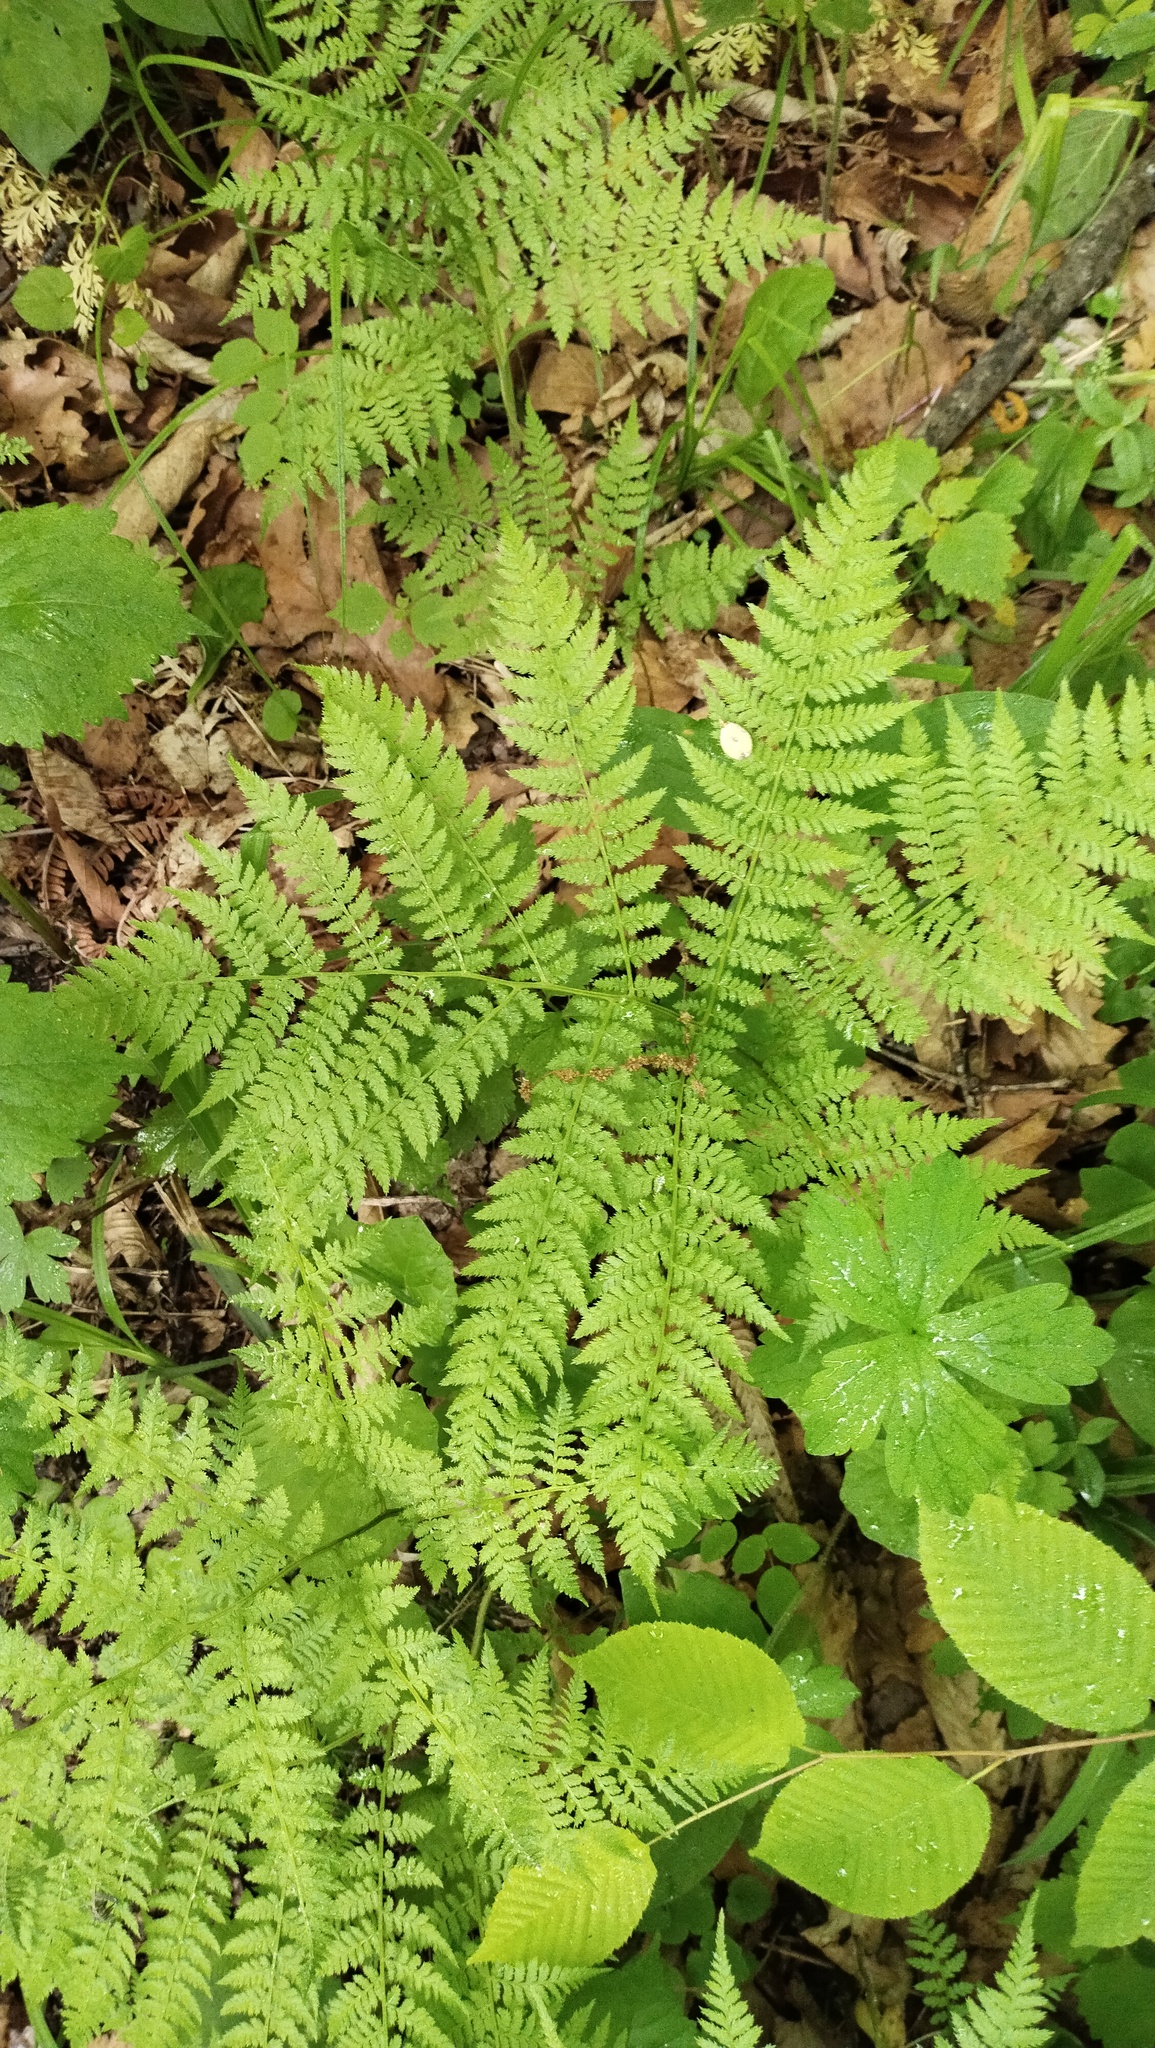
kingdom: Plantae
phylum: Tracheophyta
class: Polypodiopsida
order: Polypodiales
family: Athyriaceae
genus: Athyrium
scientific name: Athyrium spinulosum
